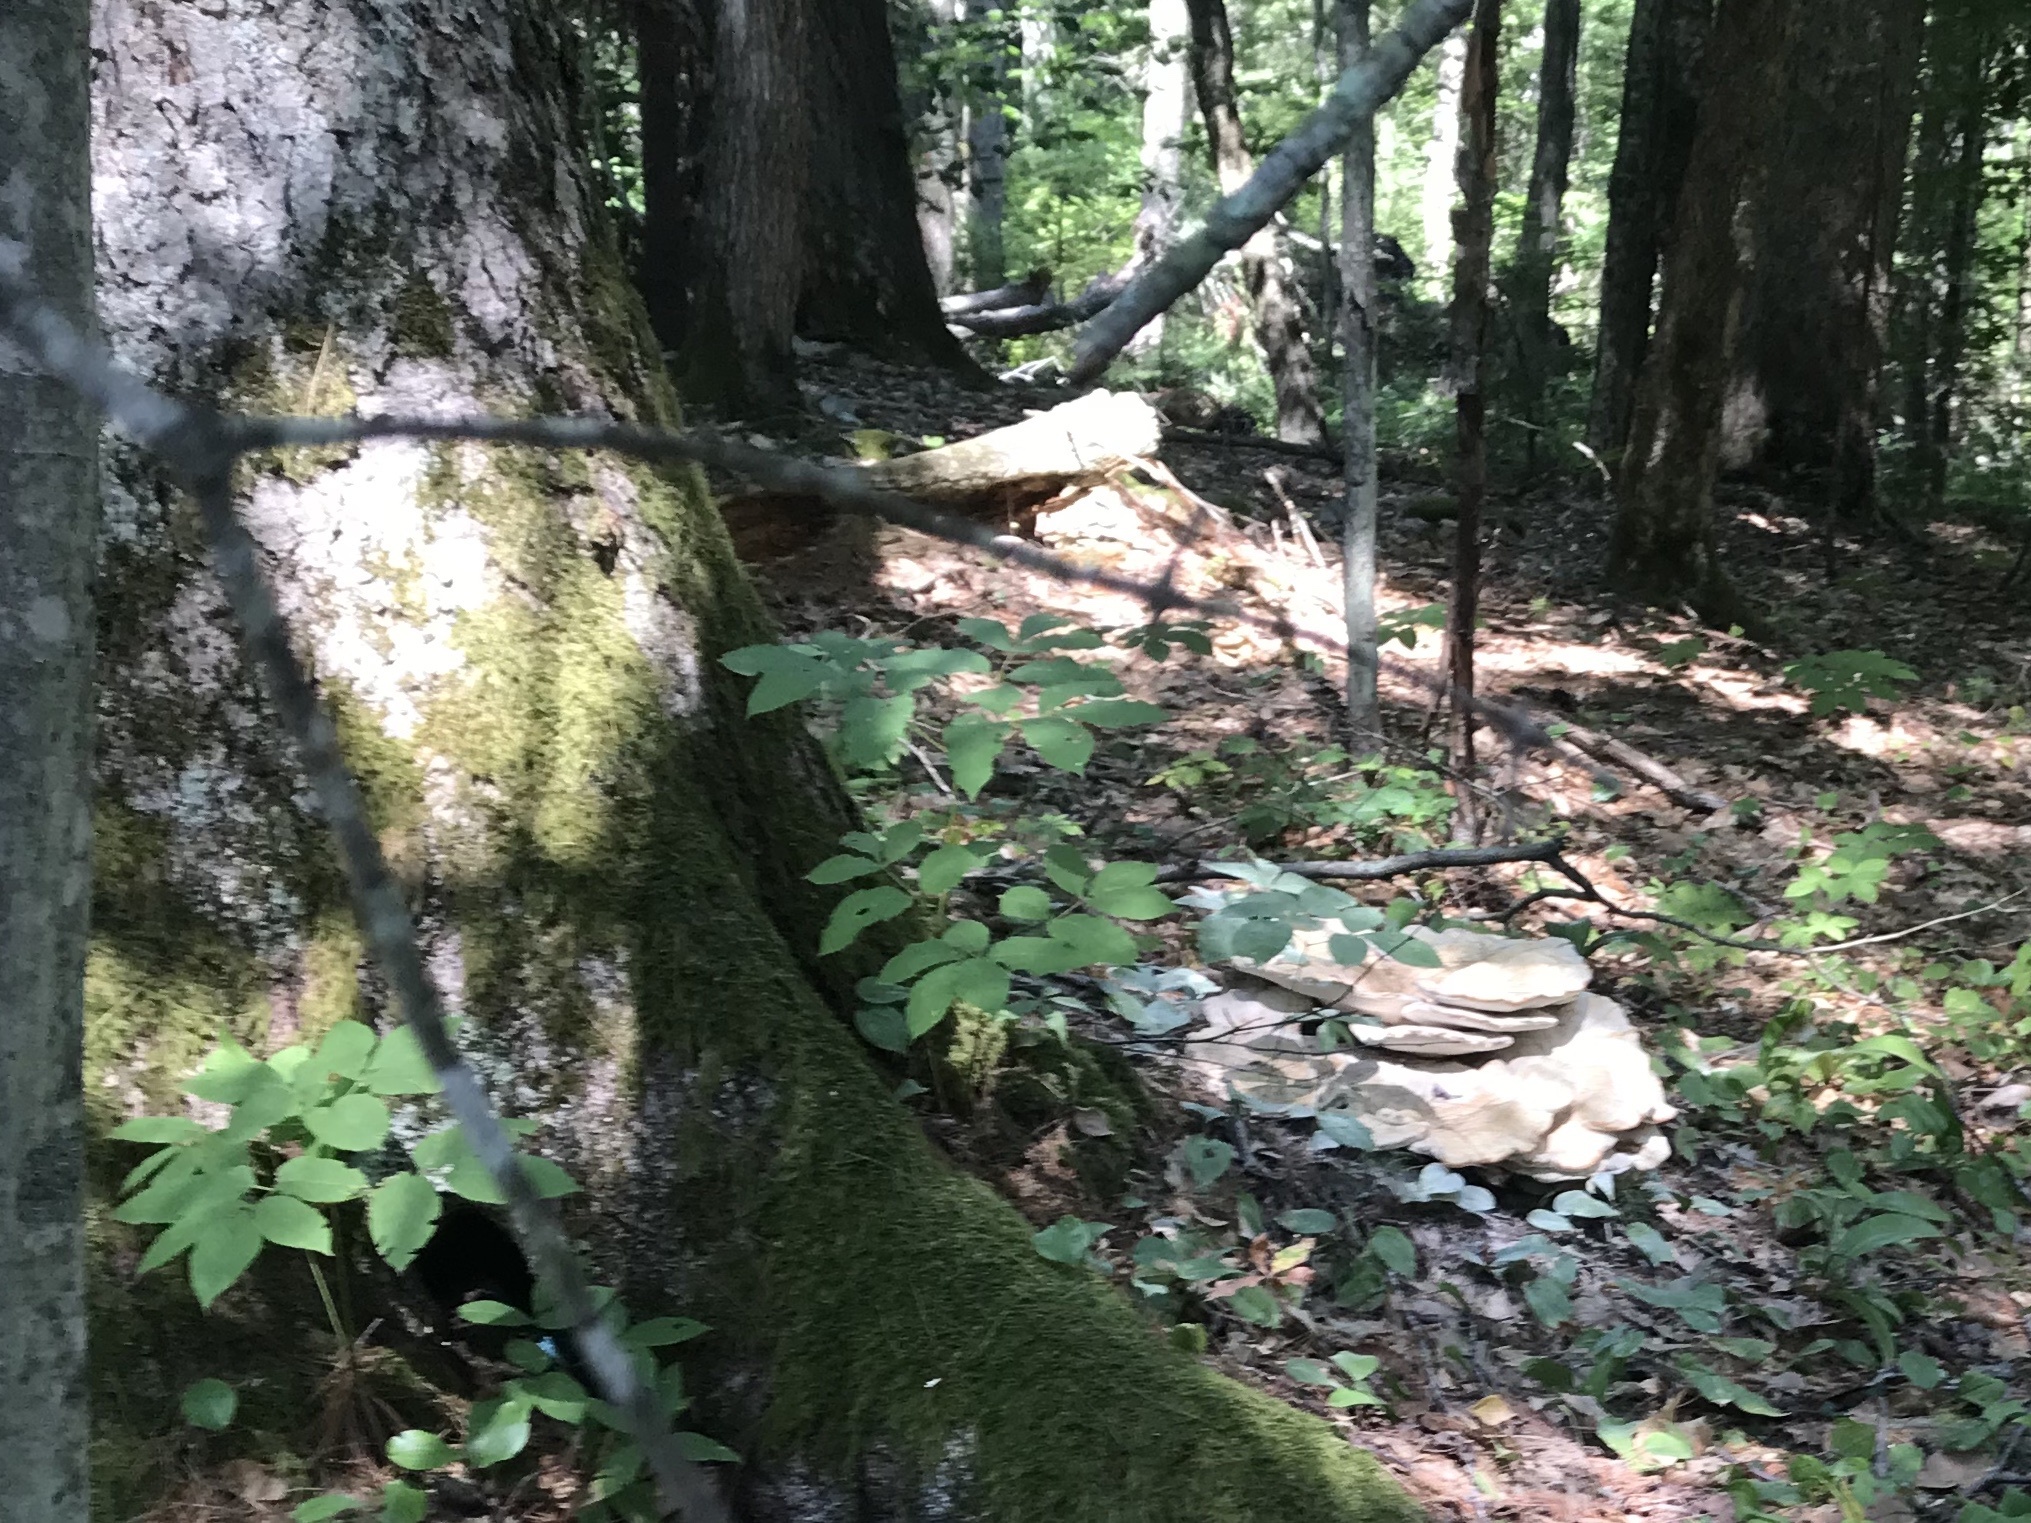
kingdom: Fungi
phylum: Basidiomycota
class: Agaricomycetes
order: Russulales
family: Bondarzewiaceae
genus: Bondarzewia
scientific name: Bondarzewia berkeleyi
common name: Berkeley's polypore
